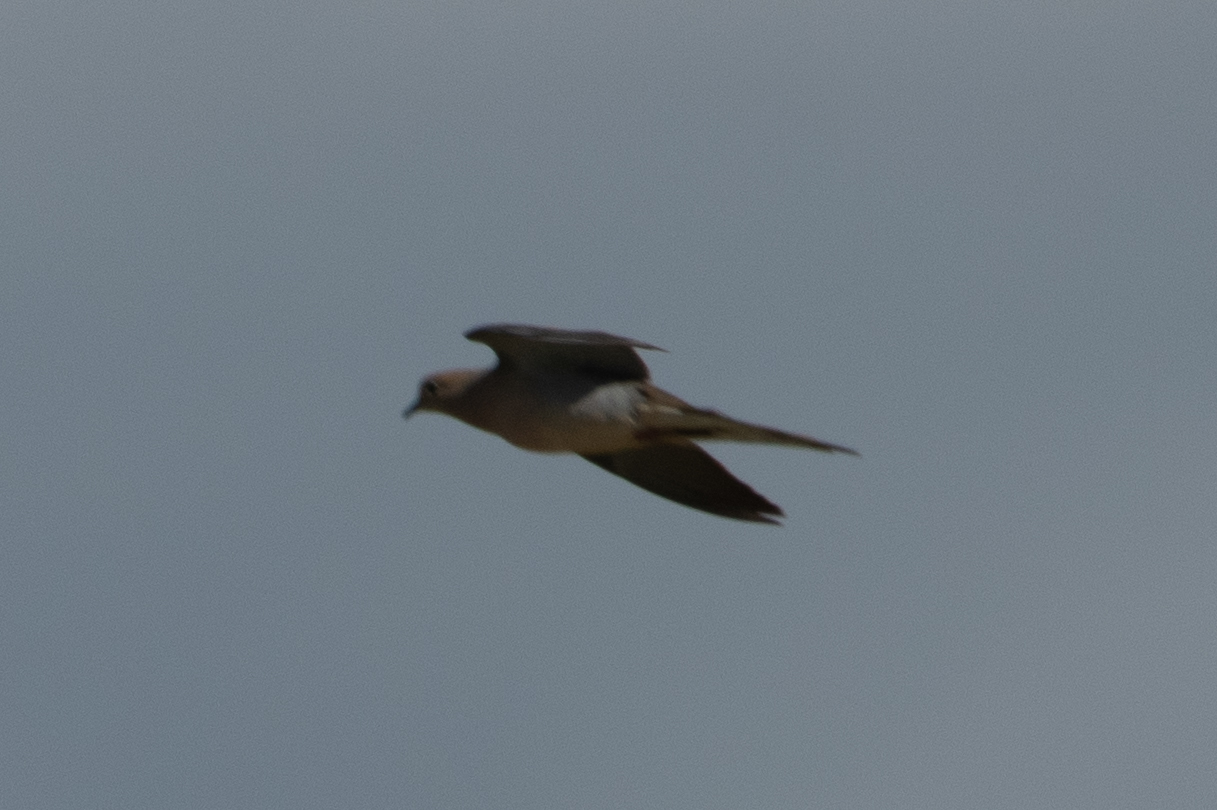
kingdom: Animalia
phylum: Chordata
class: Aves
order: Columbiformes
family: Columbidae
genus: Zenaida
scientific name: Zenaida macroura
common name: Mourning dove
